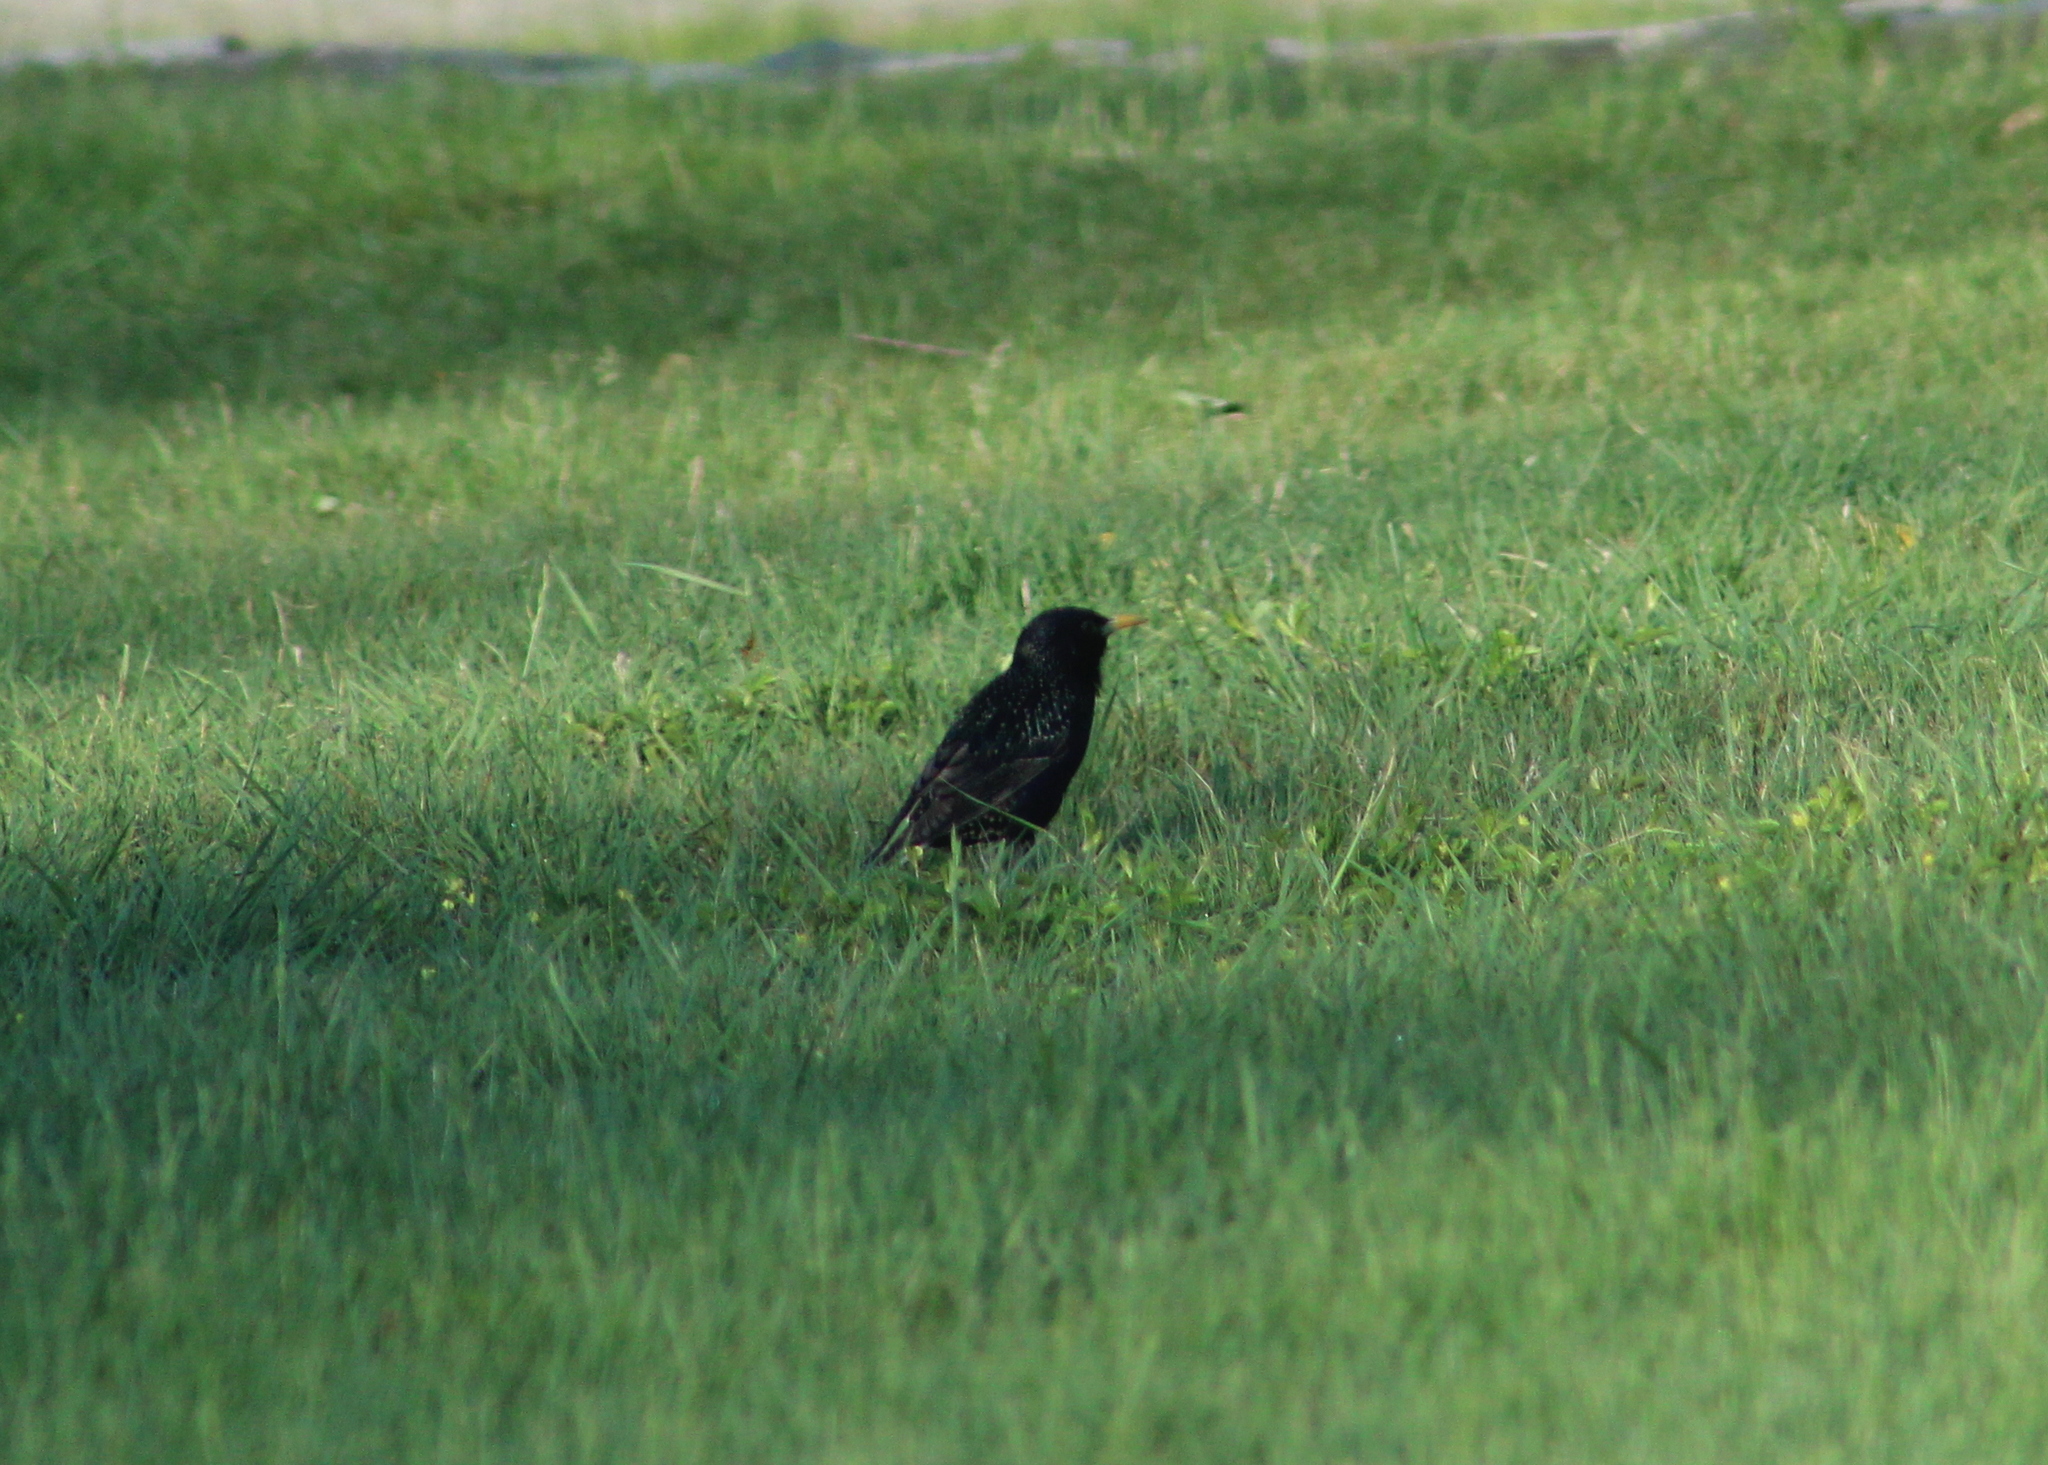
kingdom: Animalia
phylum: Chordata
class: Aves
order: Passeriformes
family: Sturnidae
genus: Sturnus
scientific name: Sturnus vulgaris
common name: Common starling
